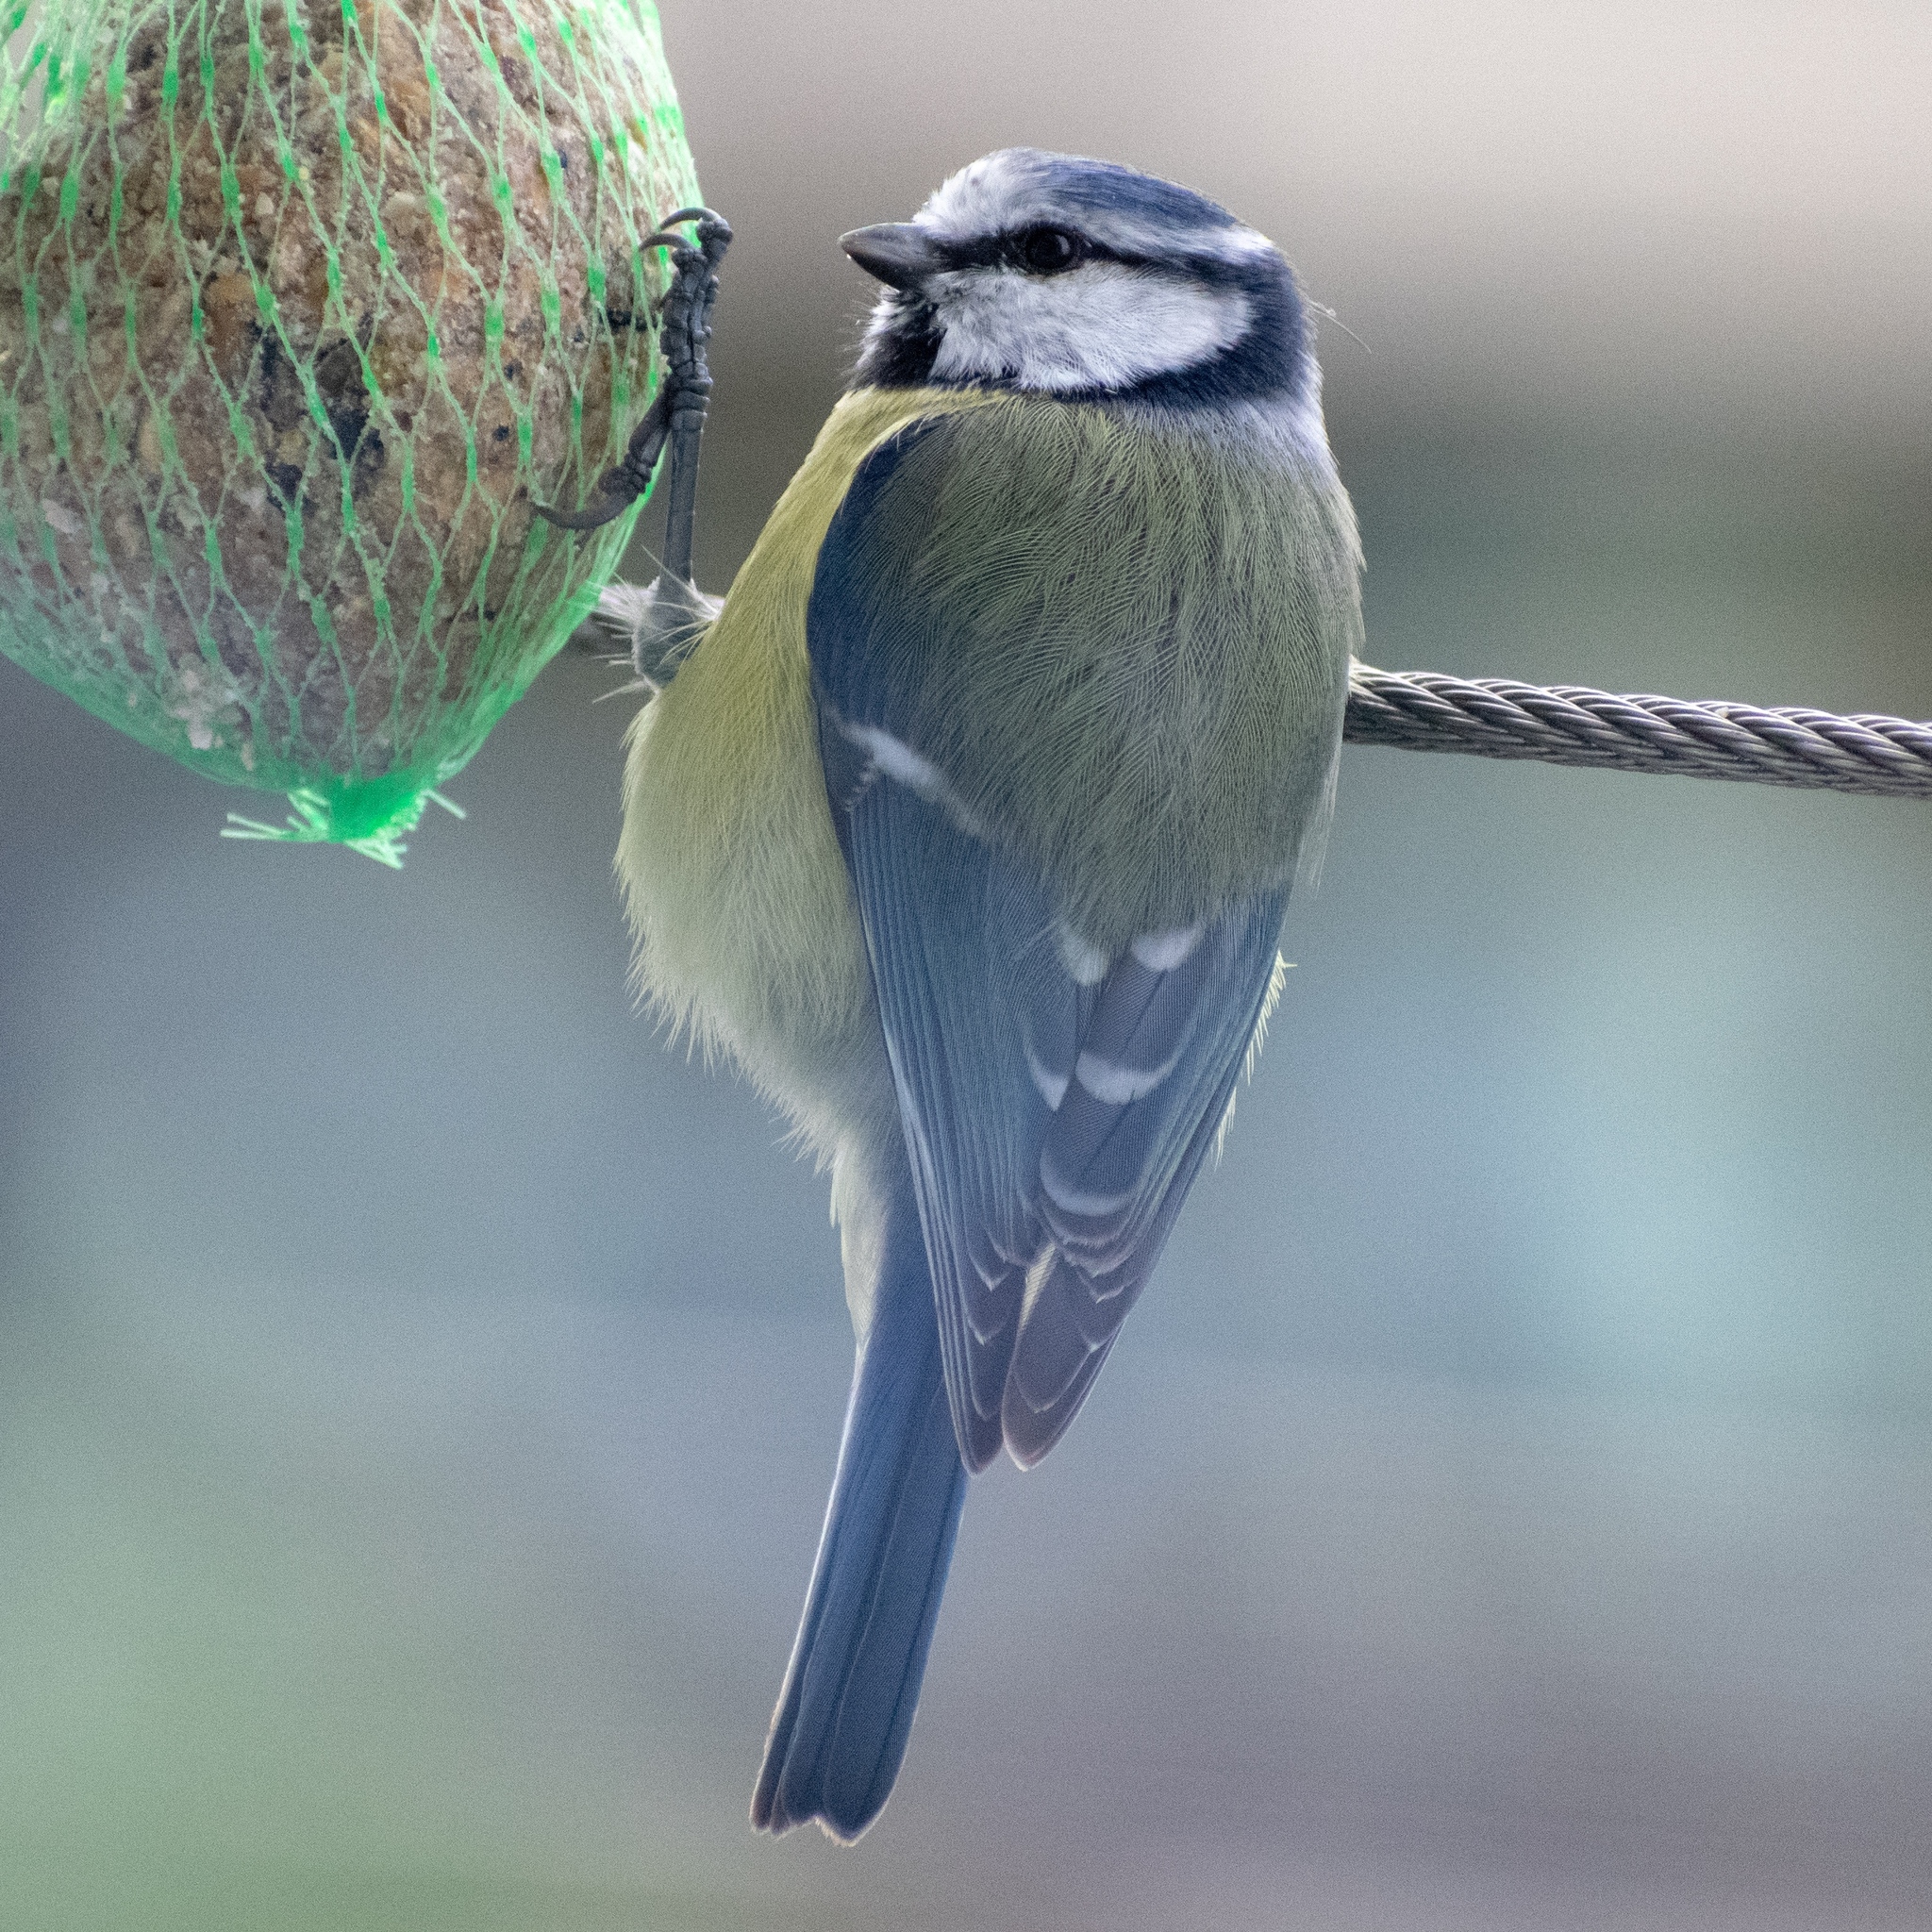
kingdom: Animalia
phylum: Chordata
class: Aves
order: Passeriformes
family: Paridae
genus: Cyanistes
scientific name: Cyanistes caeruleus
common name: Eurasian blue tit
